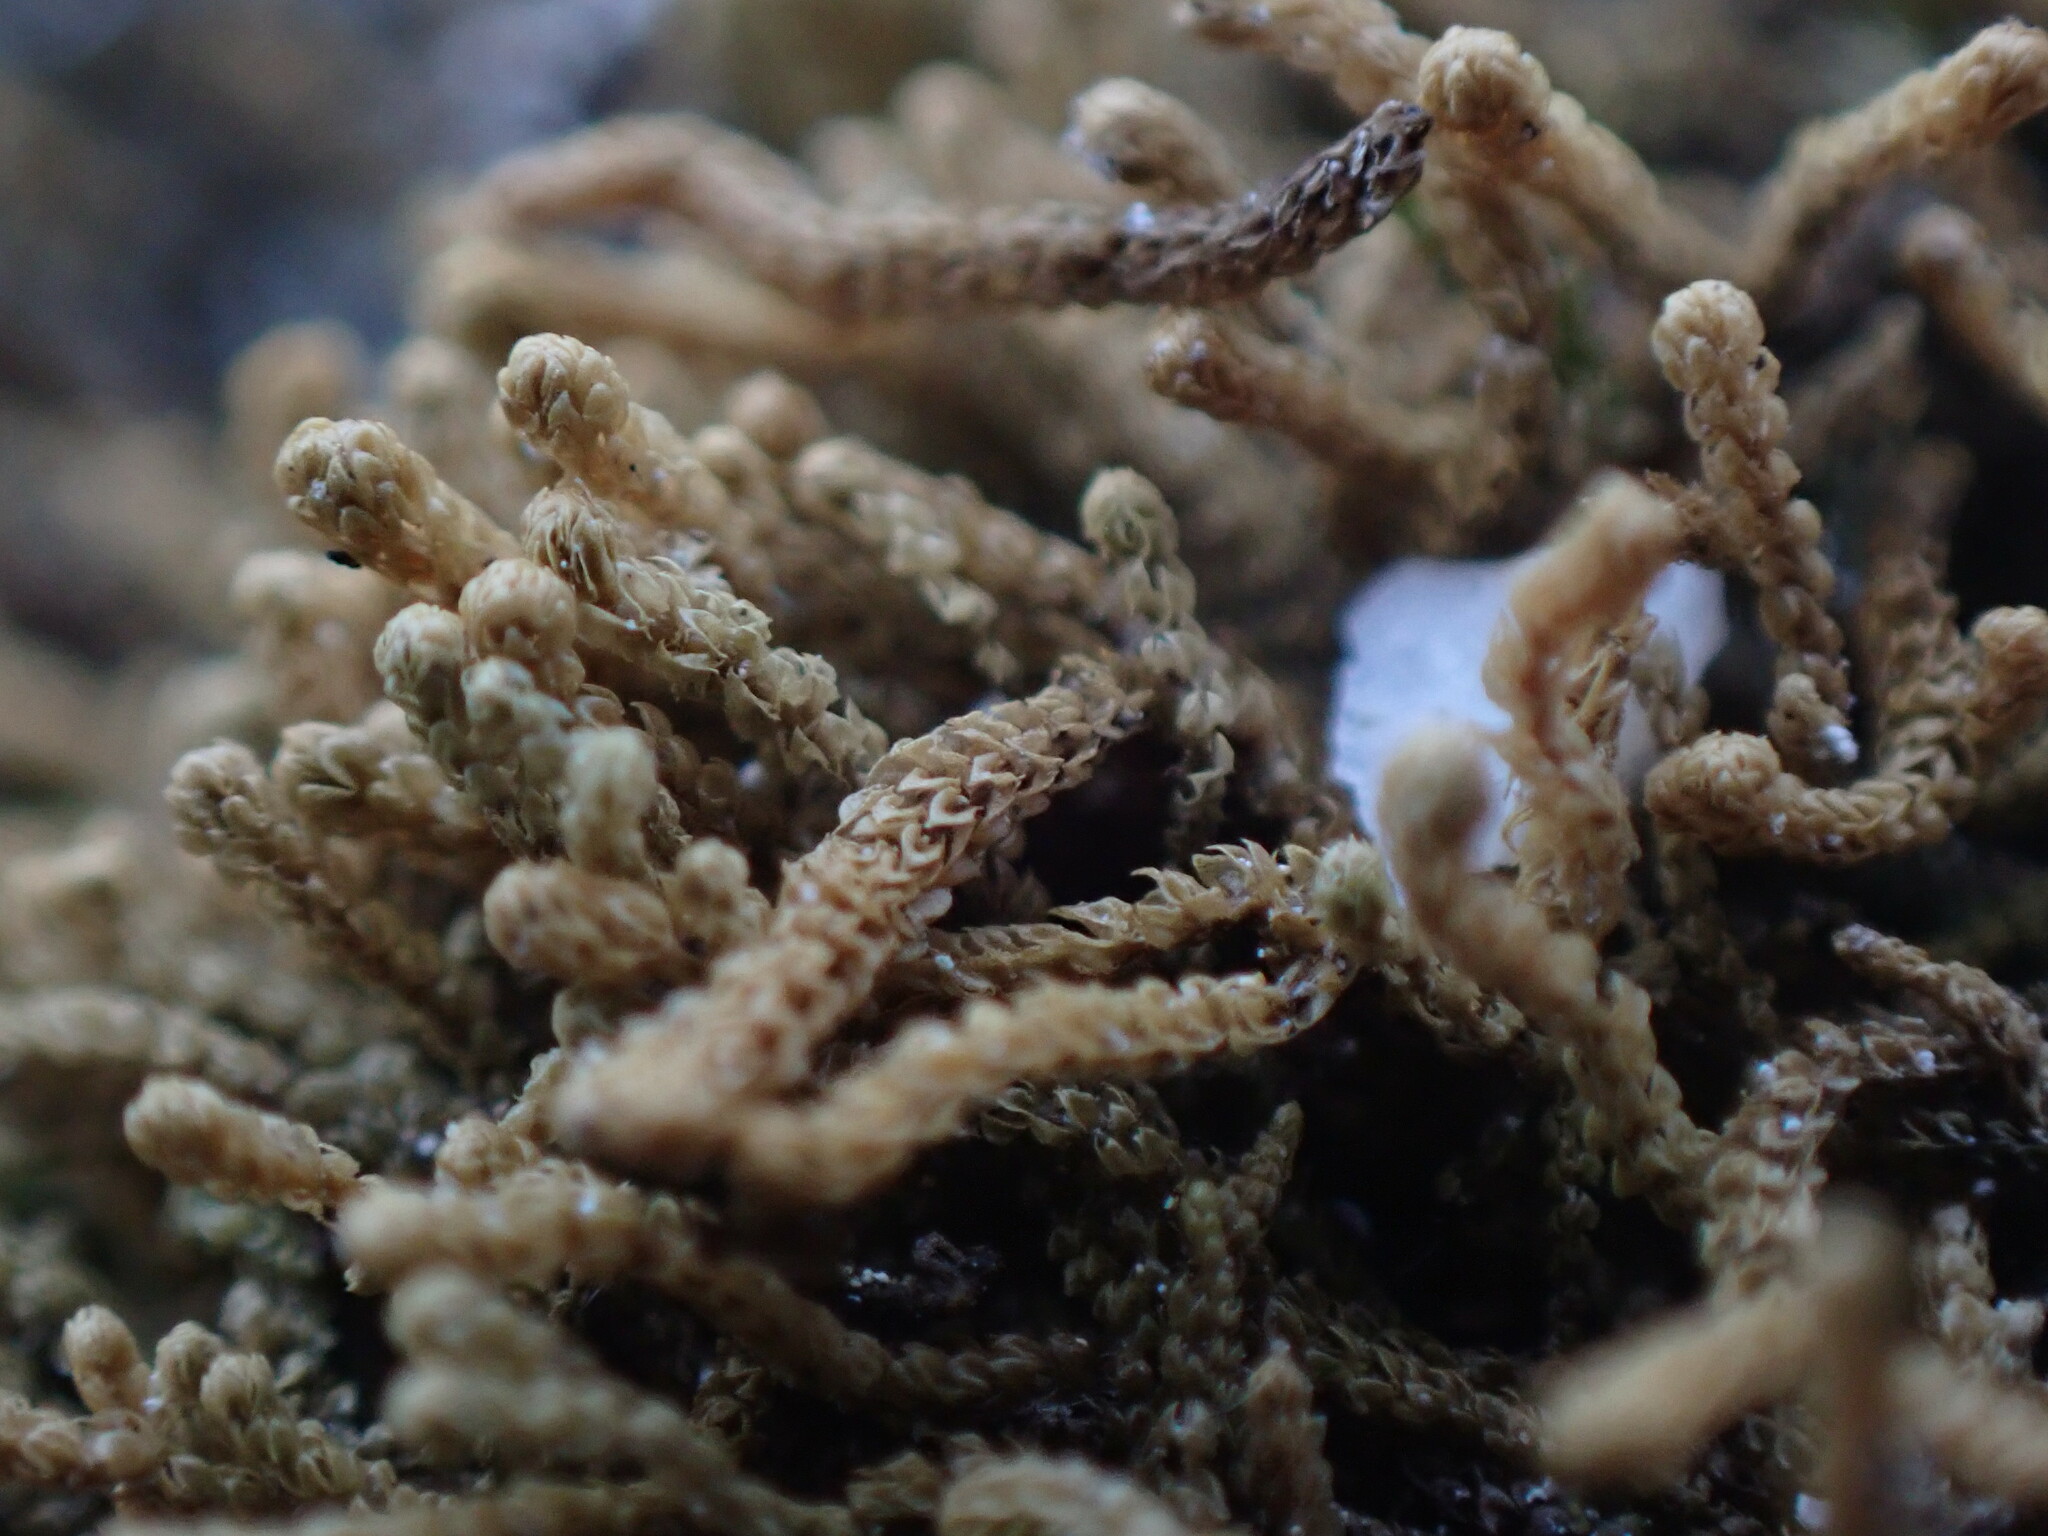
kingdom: Plantae
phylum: Marchantiophyta
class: Jungermanniopsida
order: Jungermanniales
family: Anastrophyllaceae
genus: Tetralophozia
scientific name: Tetralophozia setiformis
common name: Monster pawwort
